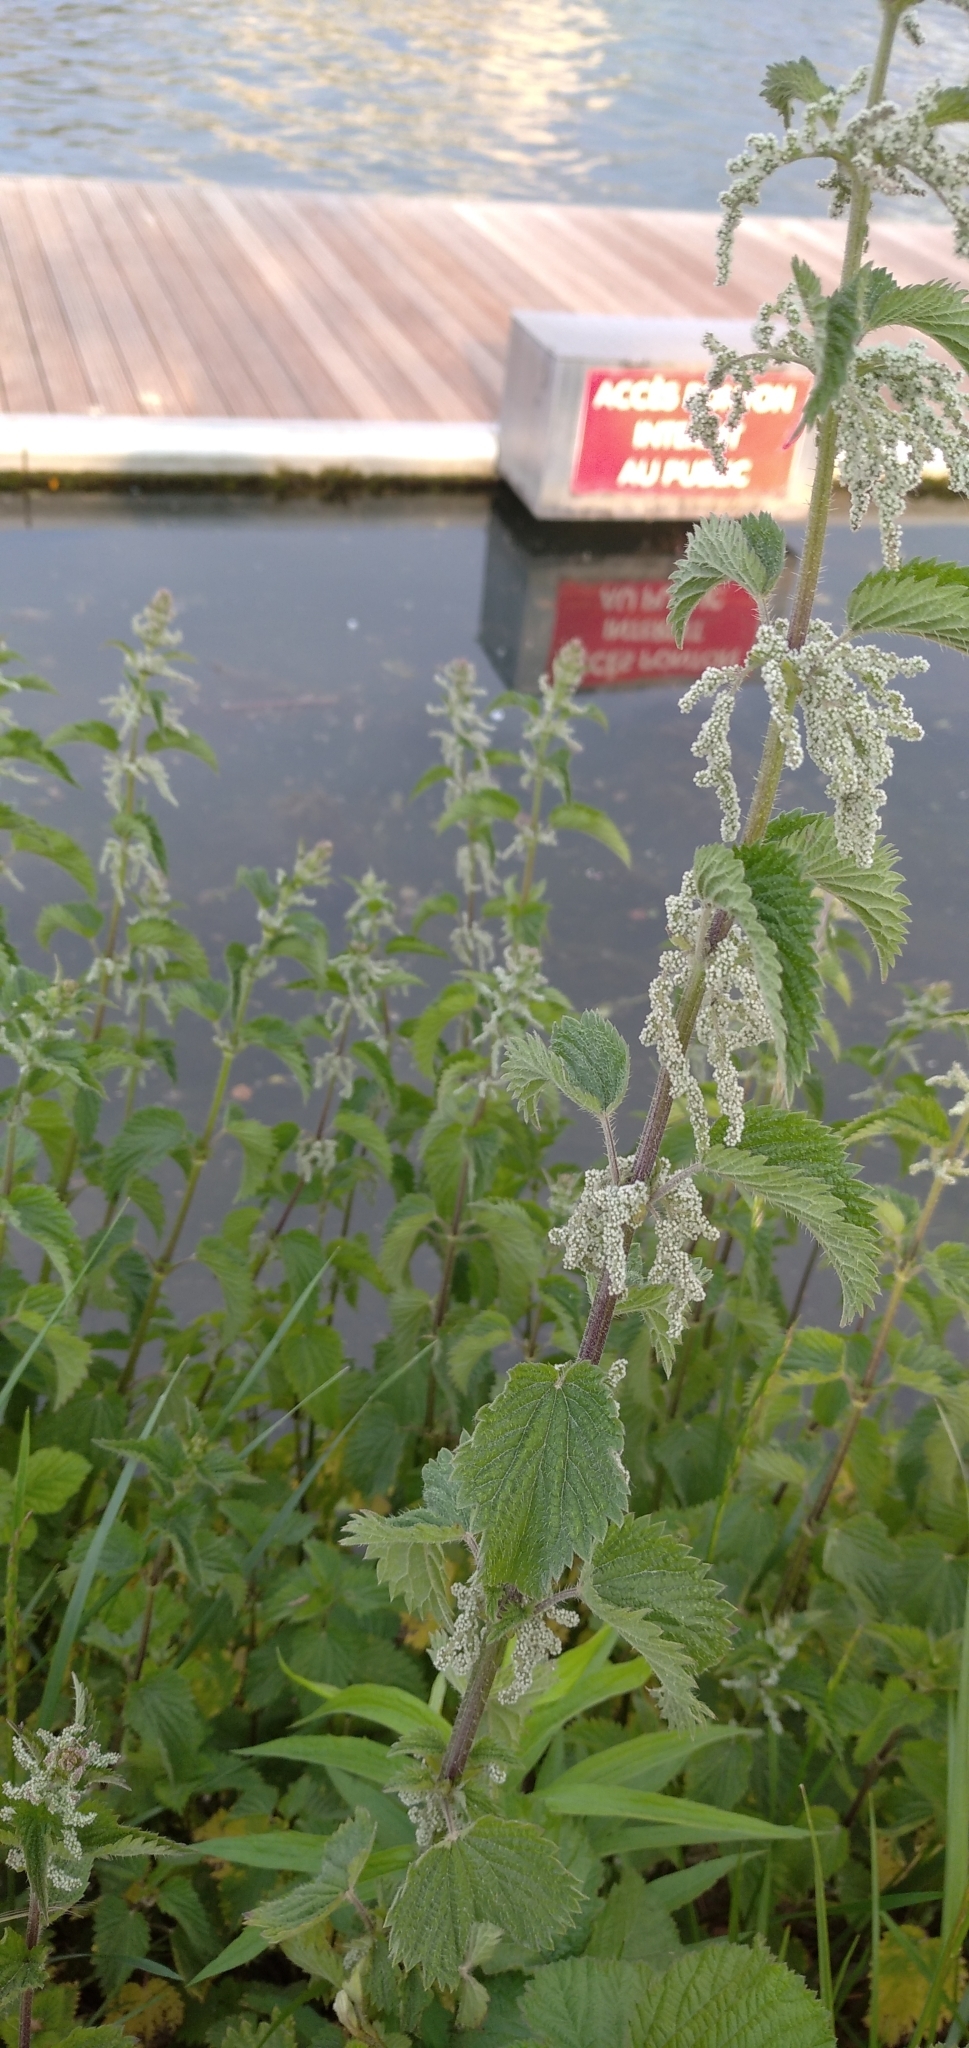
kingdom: Plantae
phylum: Tracheophyta
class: Magnoliopsida
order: Rosales
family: Urticaceae
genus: Urtica
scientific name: Urtica dioica
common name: Common nettle
